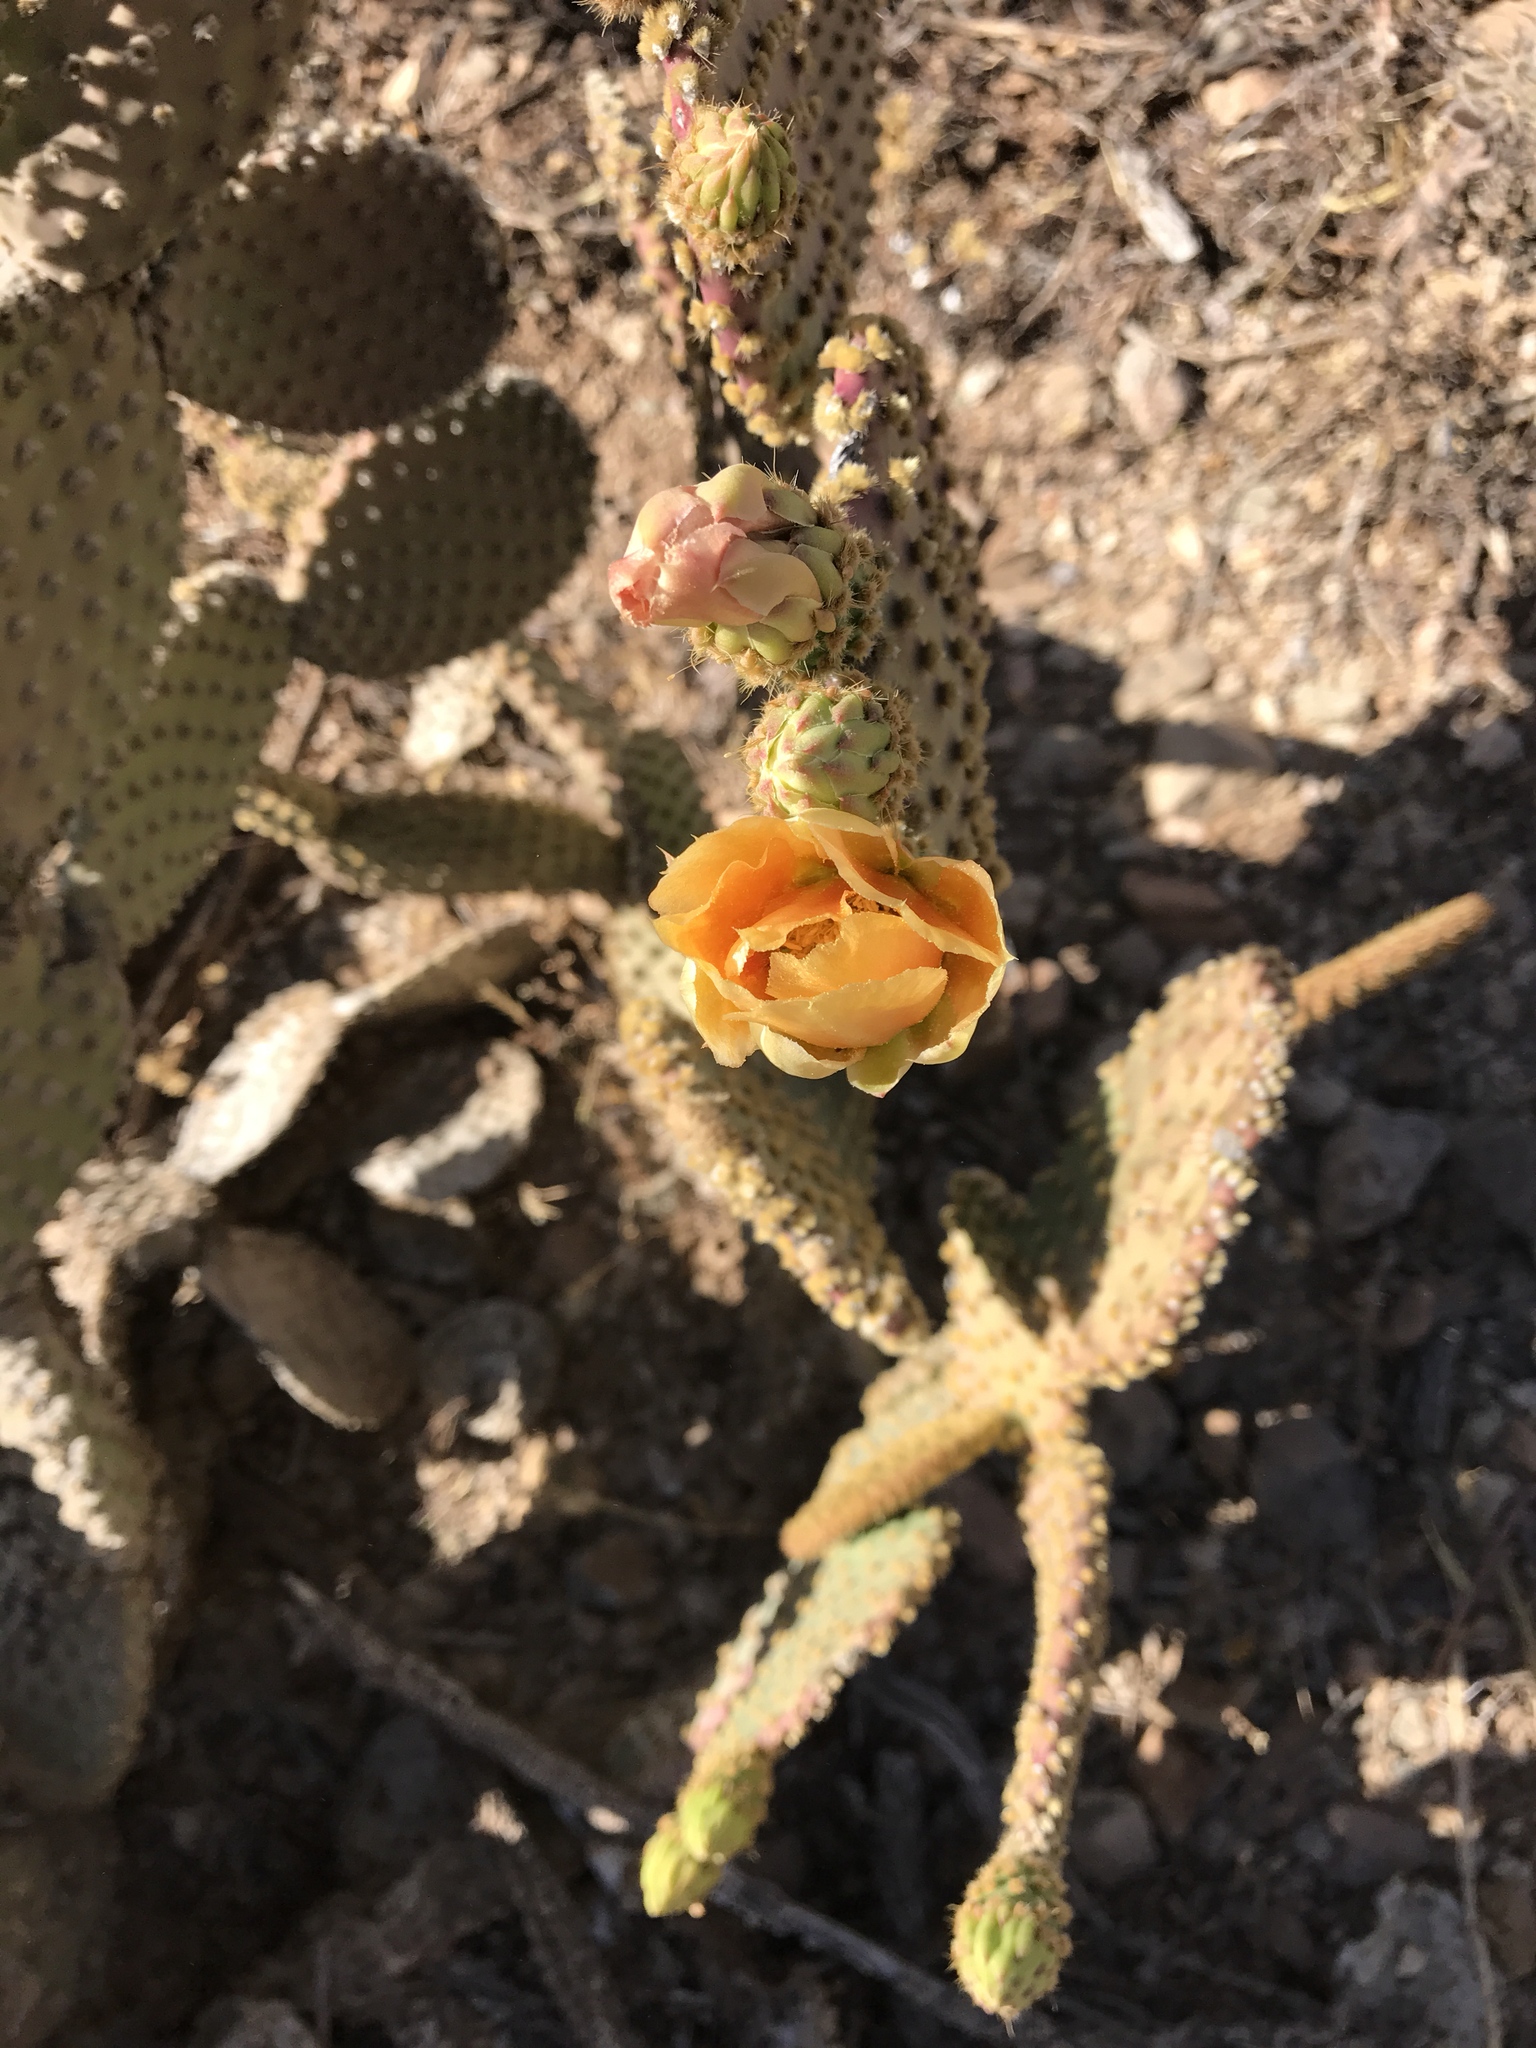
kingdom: Plantae
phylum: Tracheophyta
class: Magnoliopsida
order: Caryophyllales
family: Cactaceae
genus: Opuntia
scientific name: Opuntia microdasys
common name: Angel's-wings
